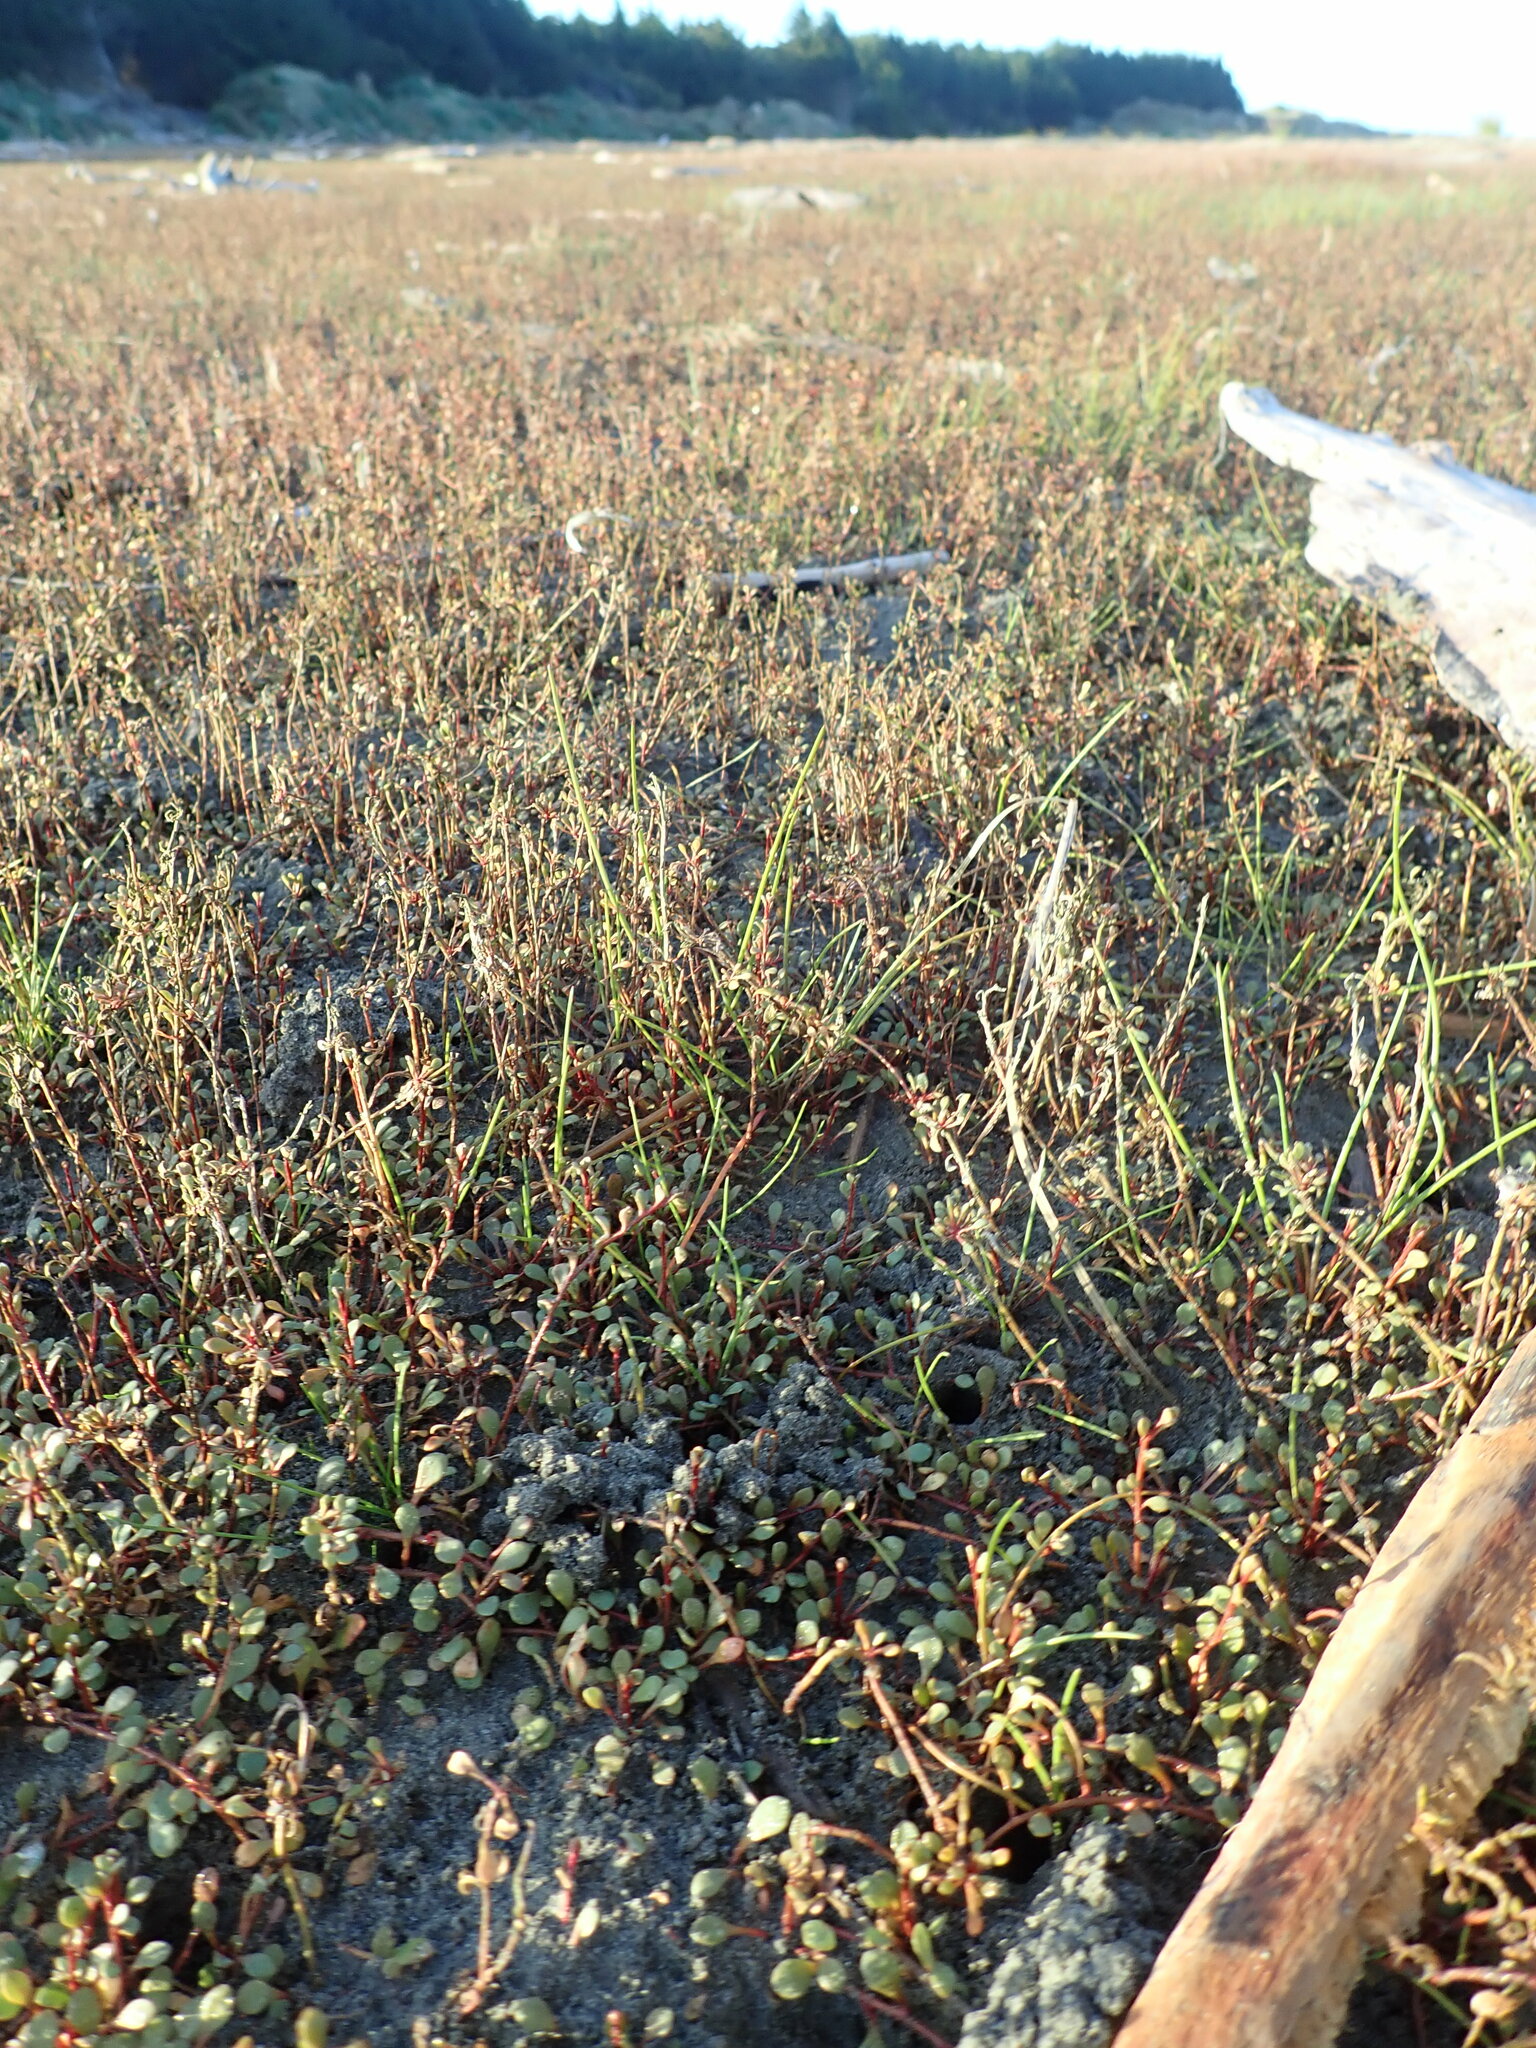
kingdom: Plantae
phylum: Tracheophyta
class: Magnoliopsida
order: Ericales
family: Primulaceae
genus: Samolus
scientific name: Samolus repens
